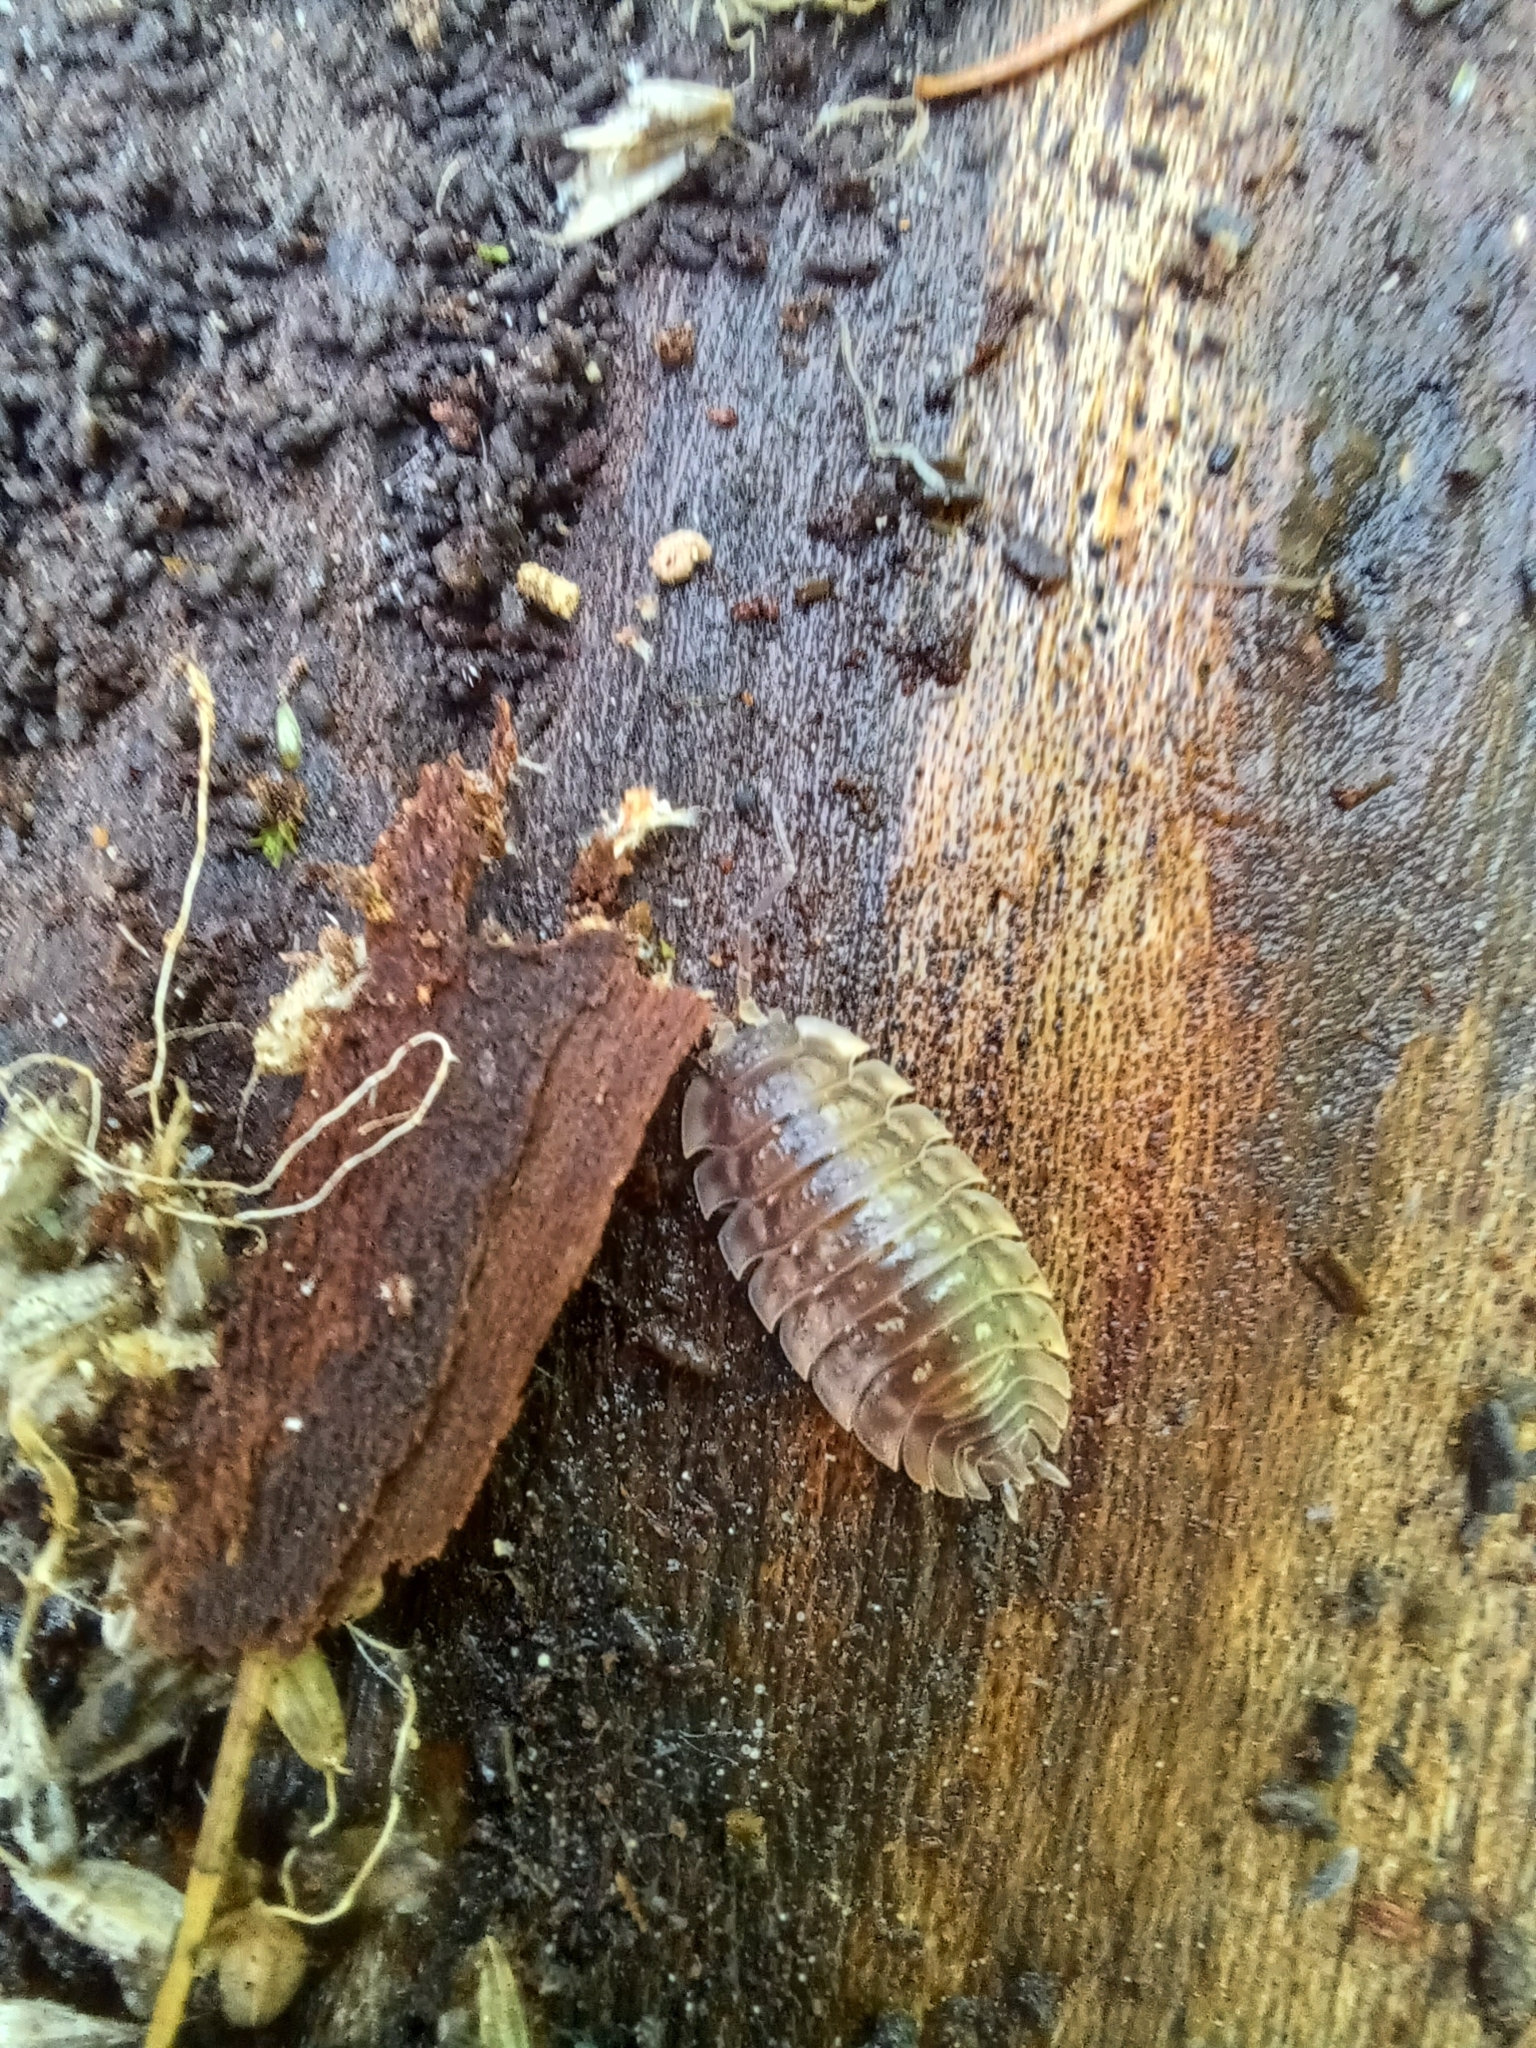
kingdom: Animalia
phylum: Arthropoda
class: Malacostraca
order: Isopoda
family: Oniscidae
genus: Oniscus
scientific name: Oniscus asellus
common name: Common shiny woodlouse
